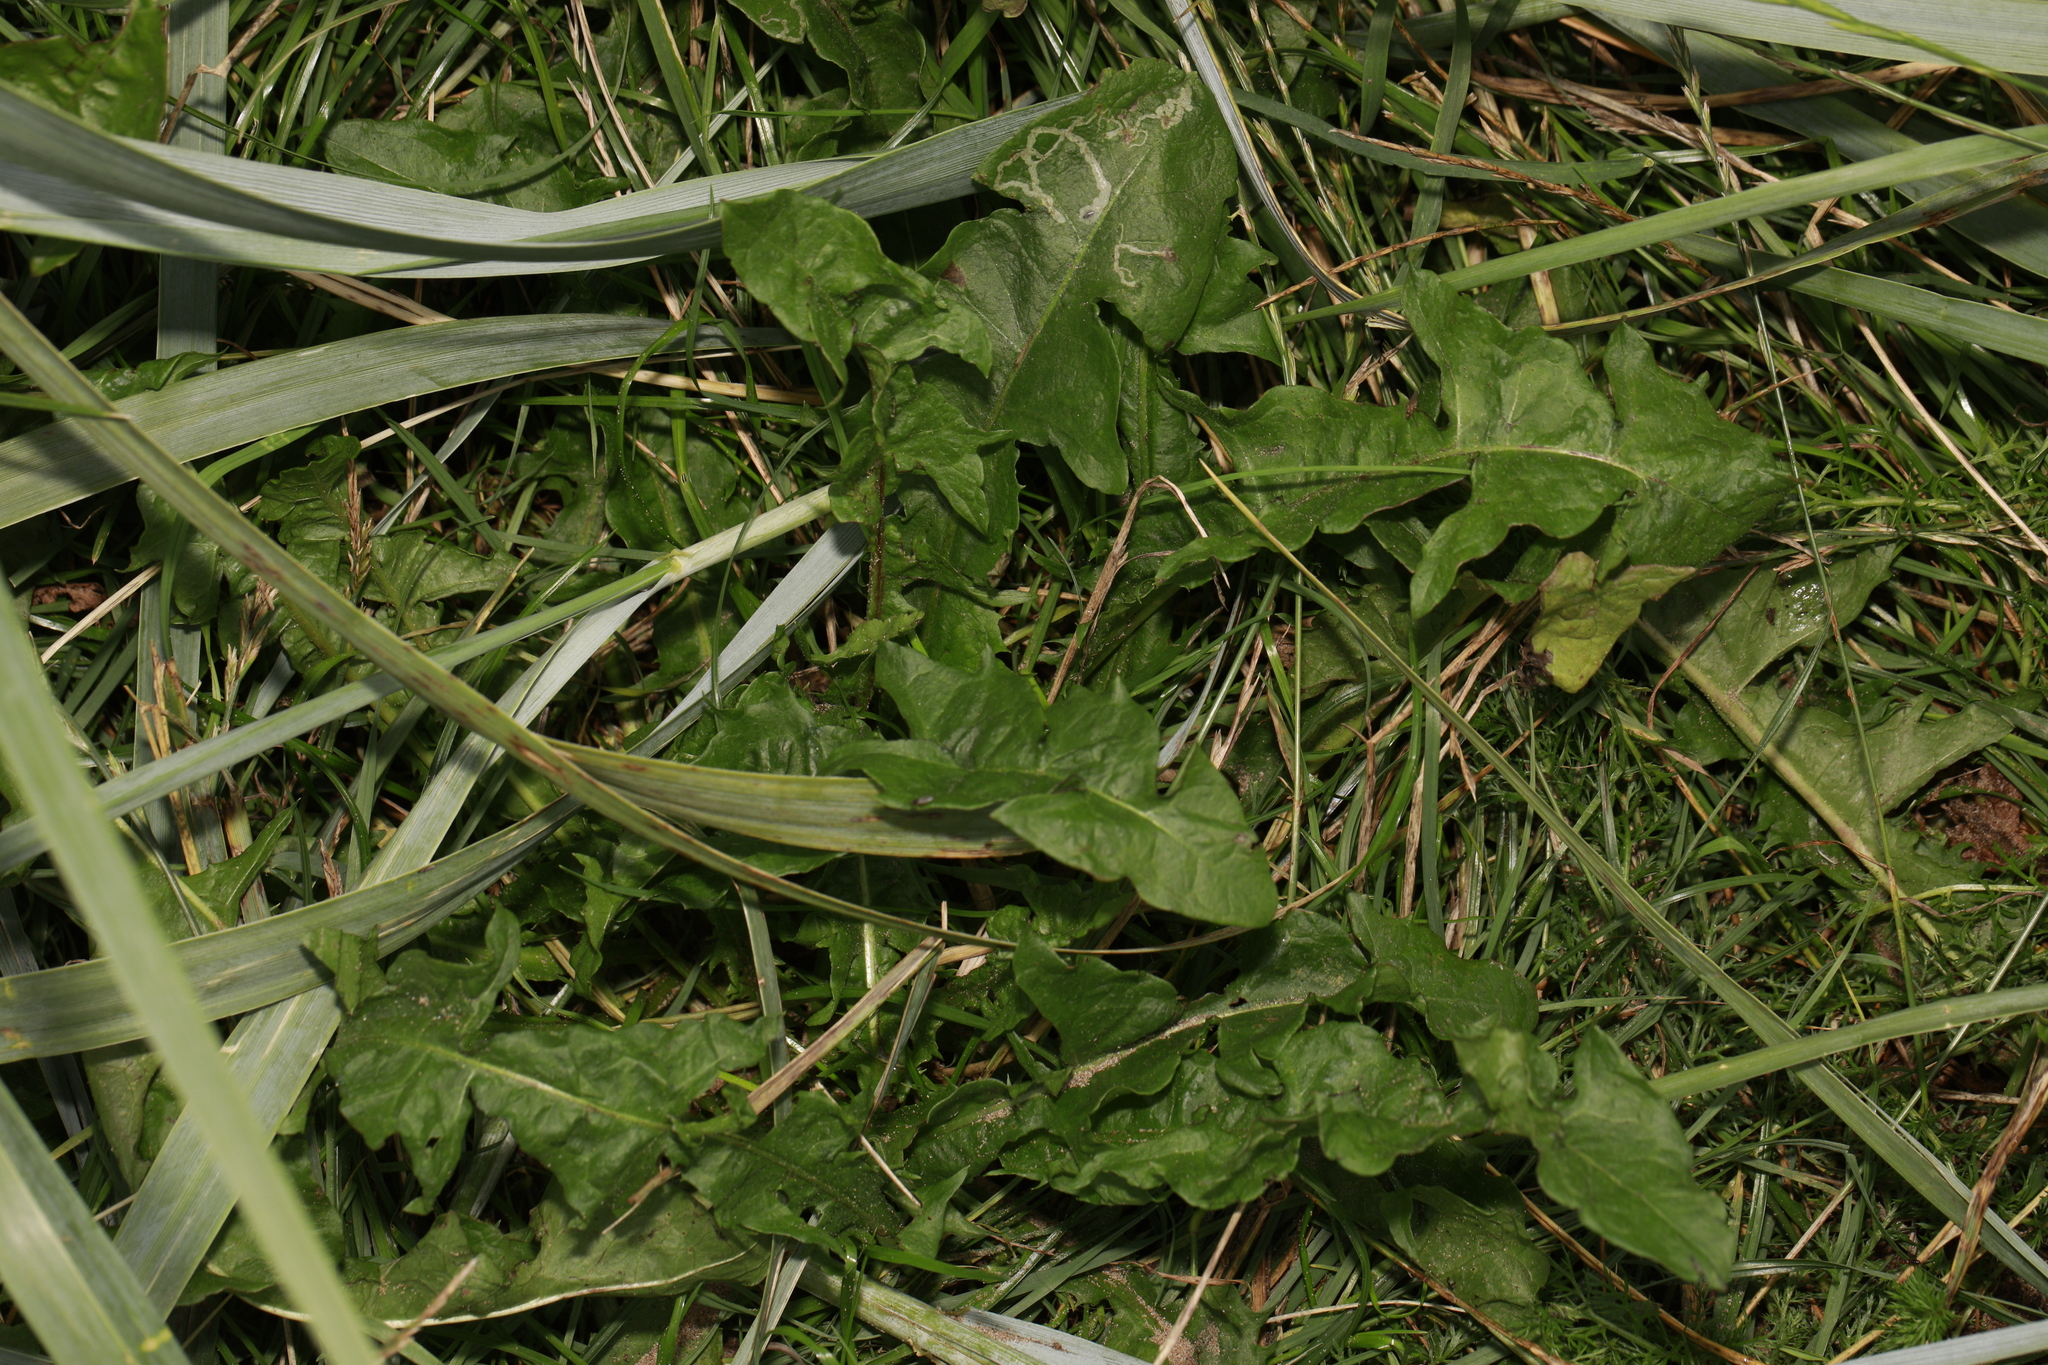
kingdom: Plantae
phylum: Tracheophyta
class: Magnoliopsida
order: Asterales
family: Asteraceae
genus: Taraxacum
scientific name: Taraxacum officinale
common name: Common dandelion
